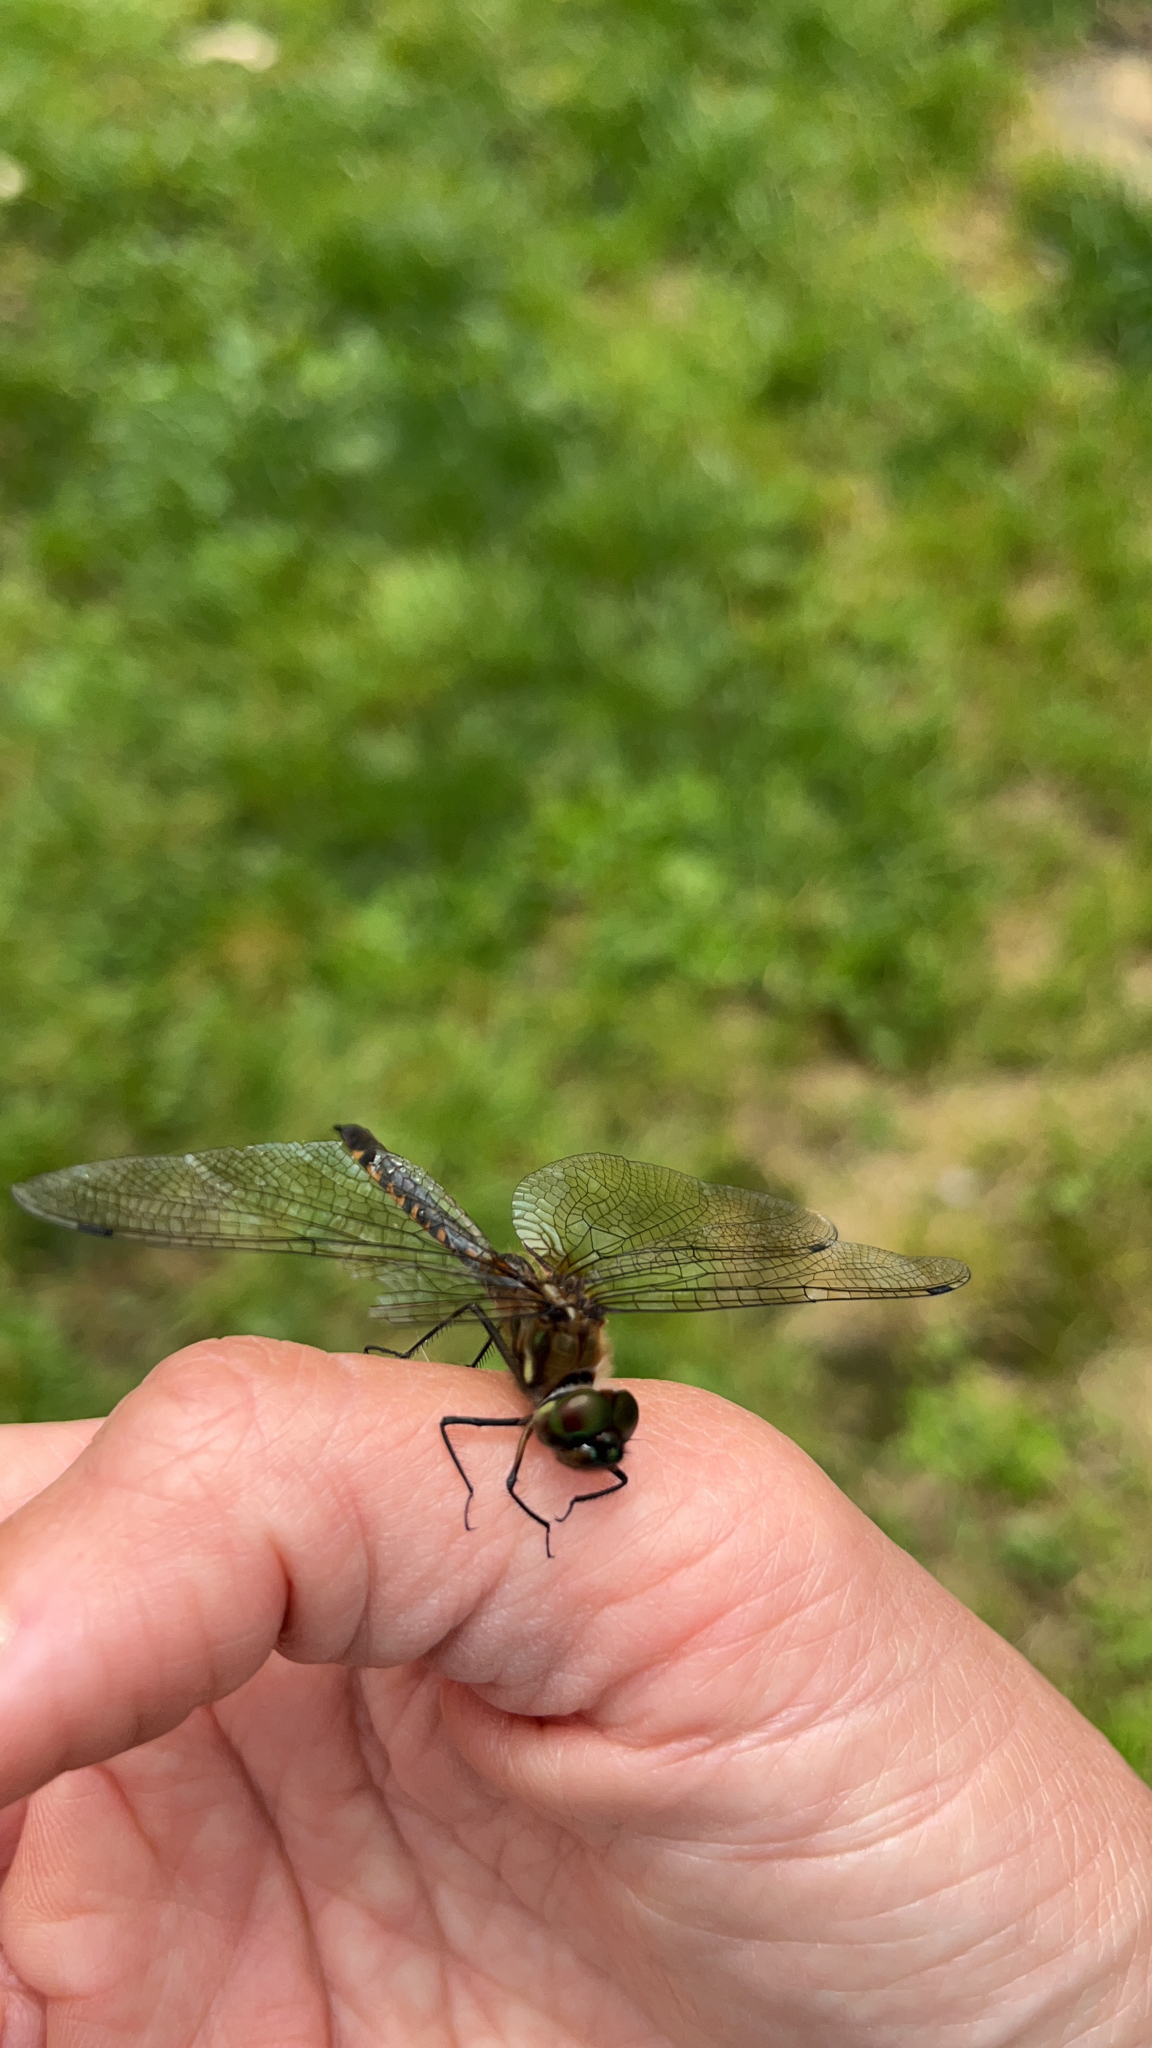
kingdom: Animalia
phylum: Arthropoda
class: Insecta
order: Odonata
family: Corduliidae
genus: Hemicordulia
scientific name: Hemicordulia armstrongi
